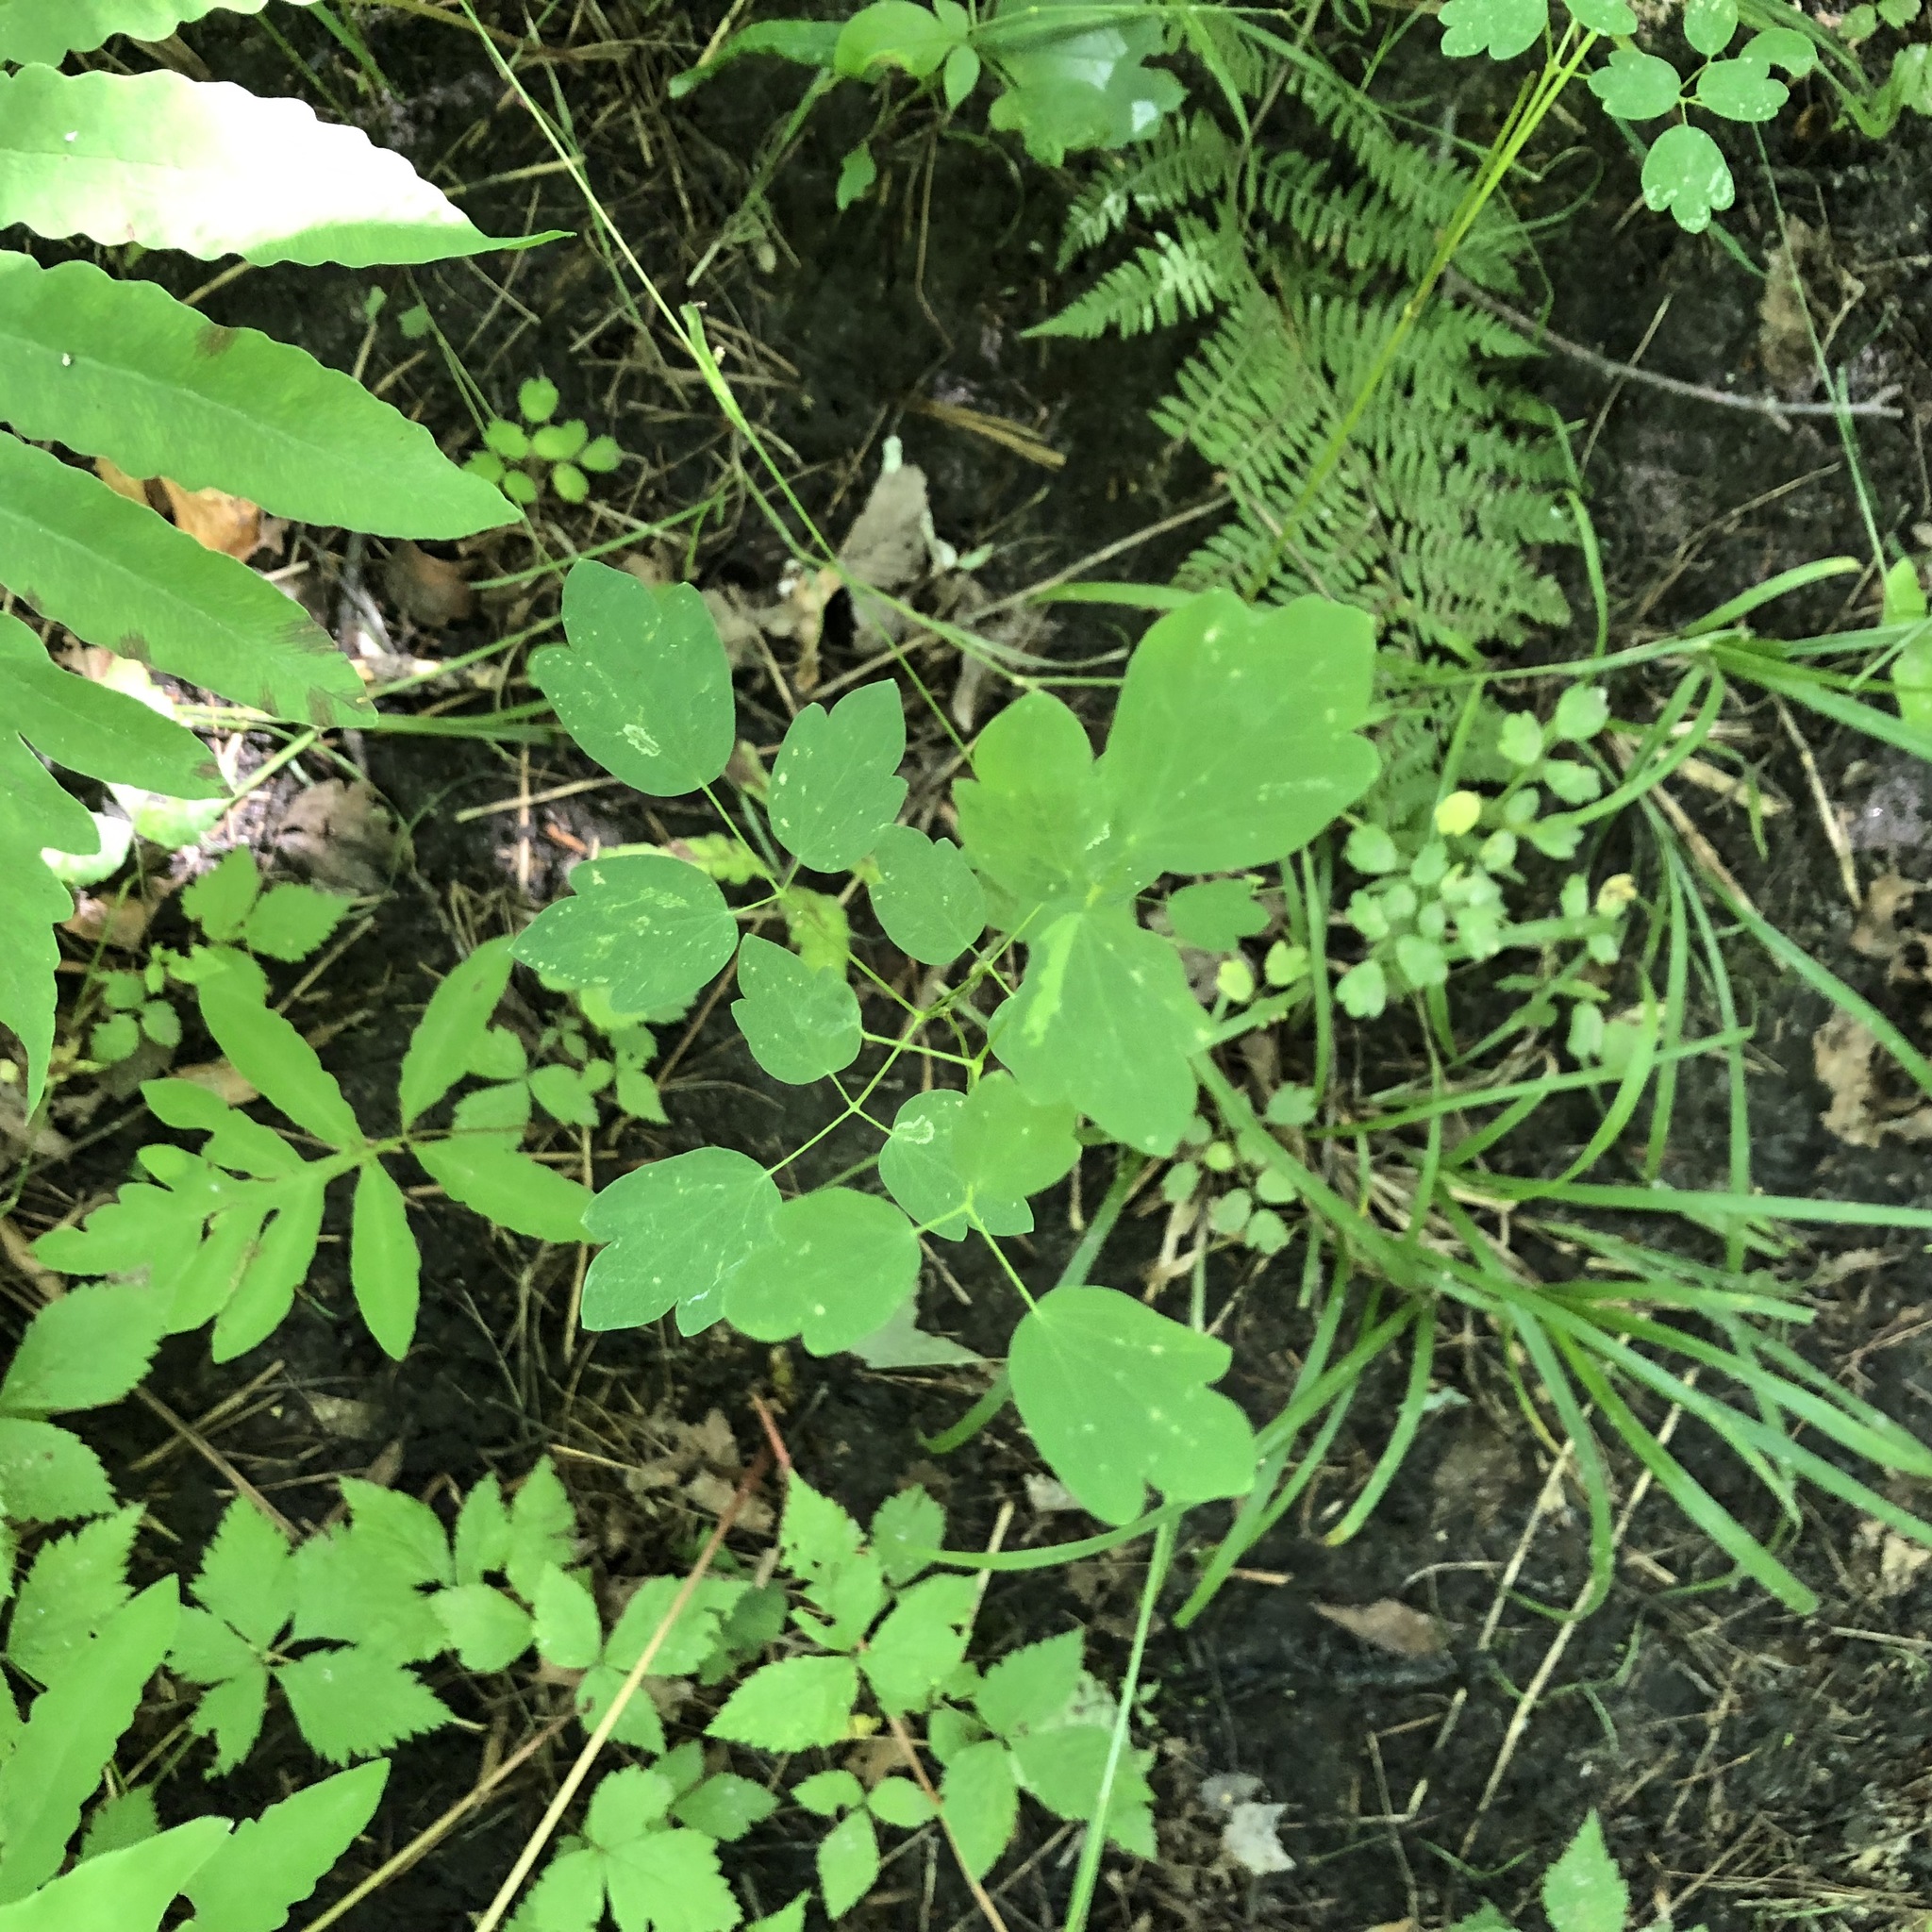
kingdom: Plantae
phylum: Tracheophyta
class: Magnoliopsida
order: Ranunculales
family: Ranunculaceae
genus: Thalictrum
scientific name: Thalictrum pubescens
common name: King-of-the-meadow
